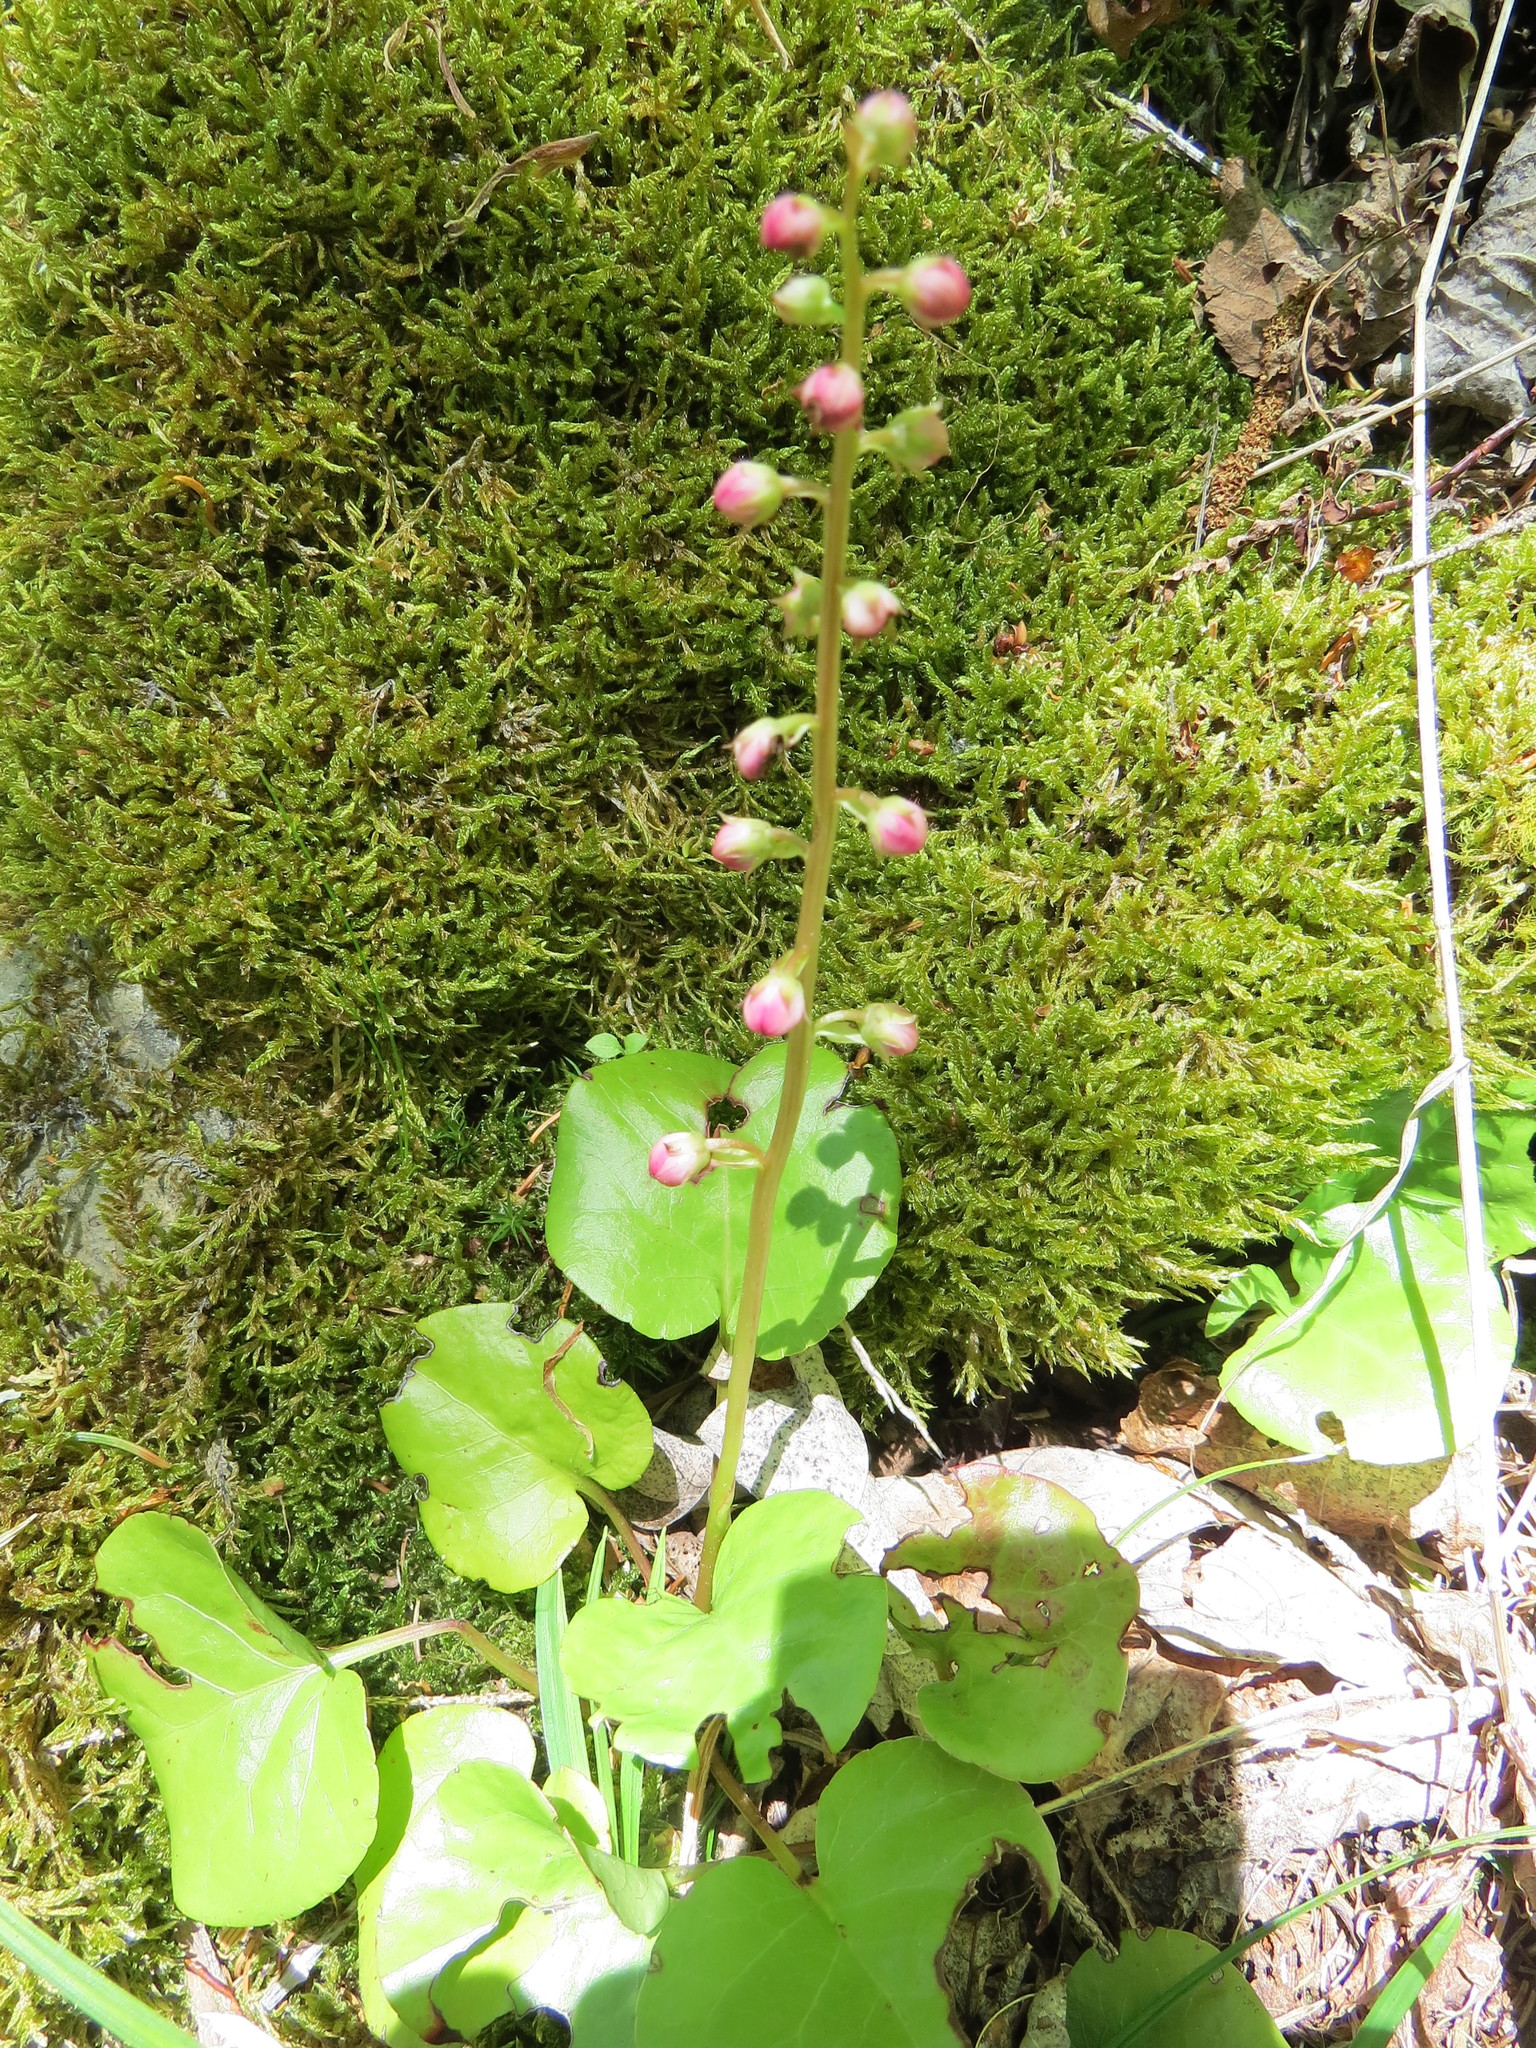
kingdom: Plantae
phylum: Tracheophyta
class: Magnoliopsida
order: Ericales
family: Ericaceae
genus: Pyrola
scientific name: Pyrola asarifolia
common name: Bog wintergreen
